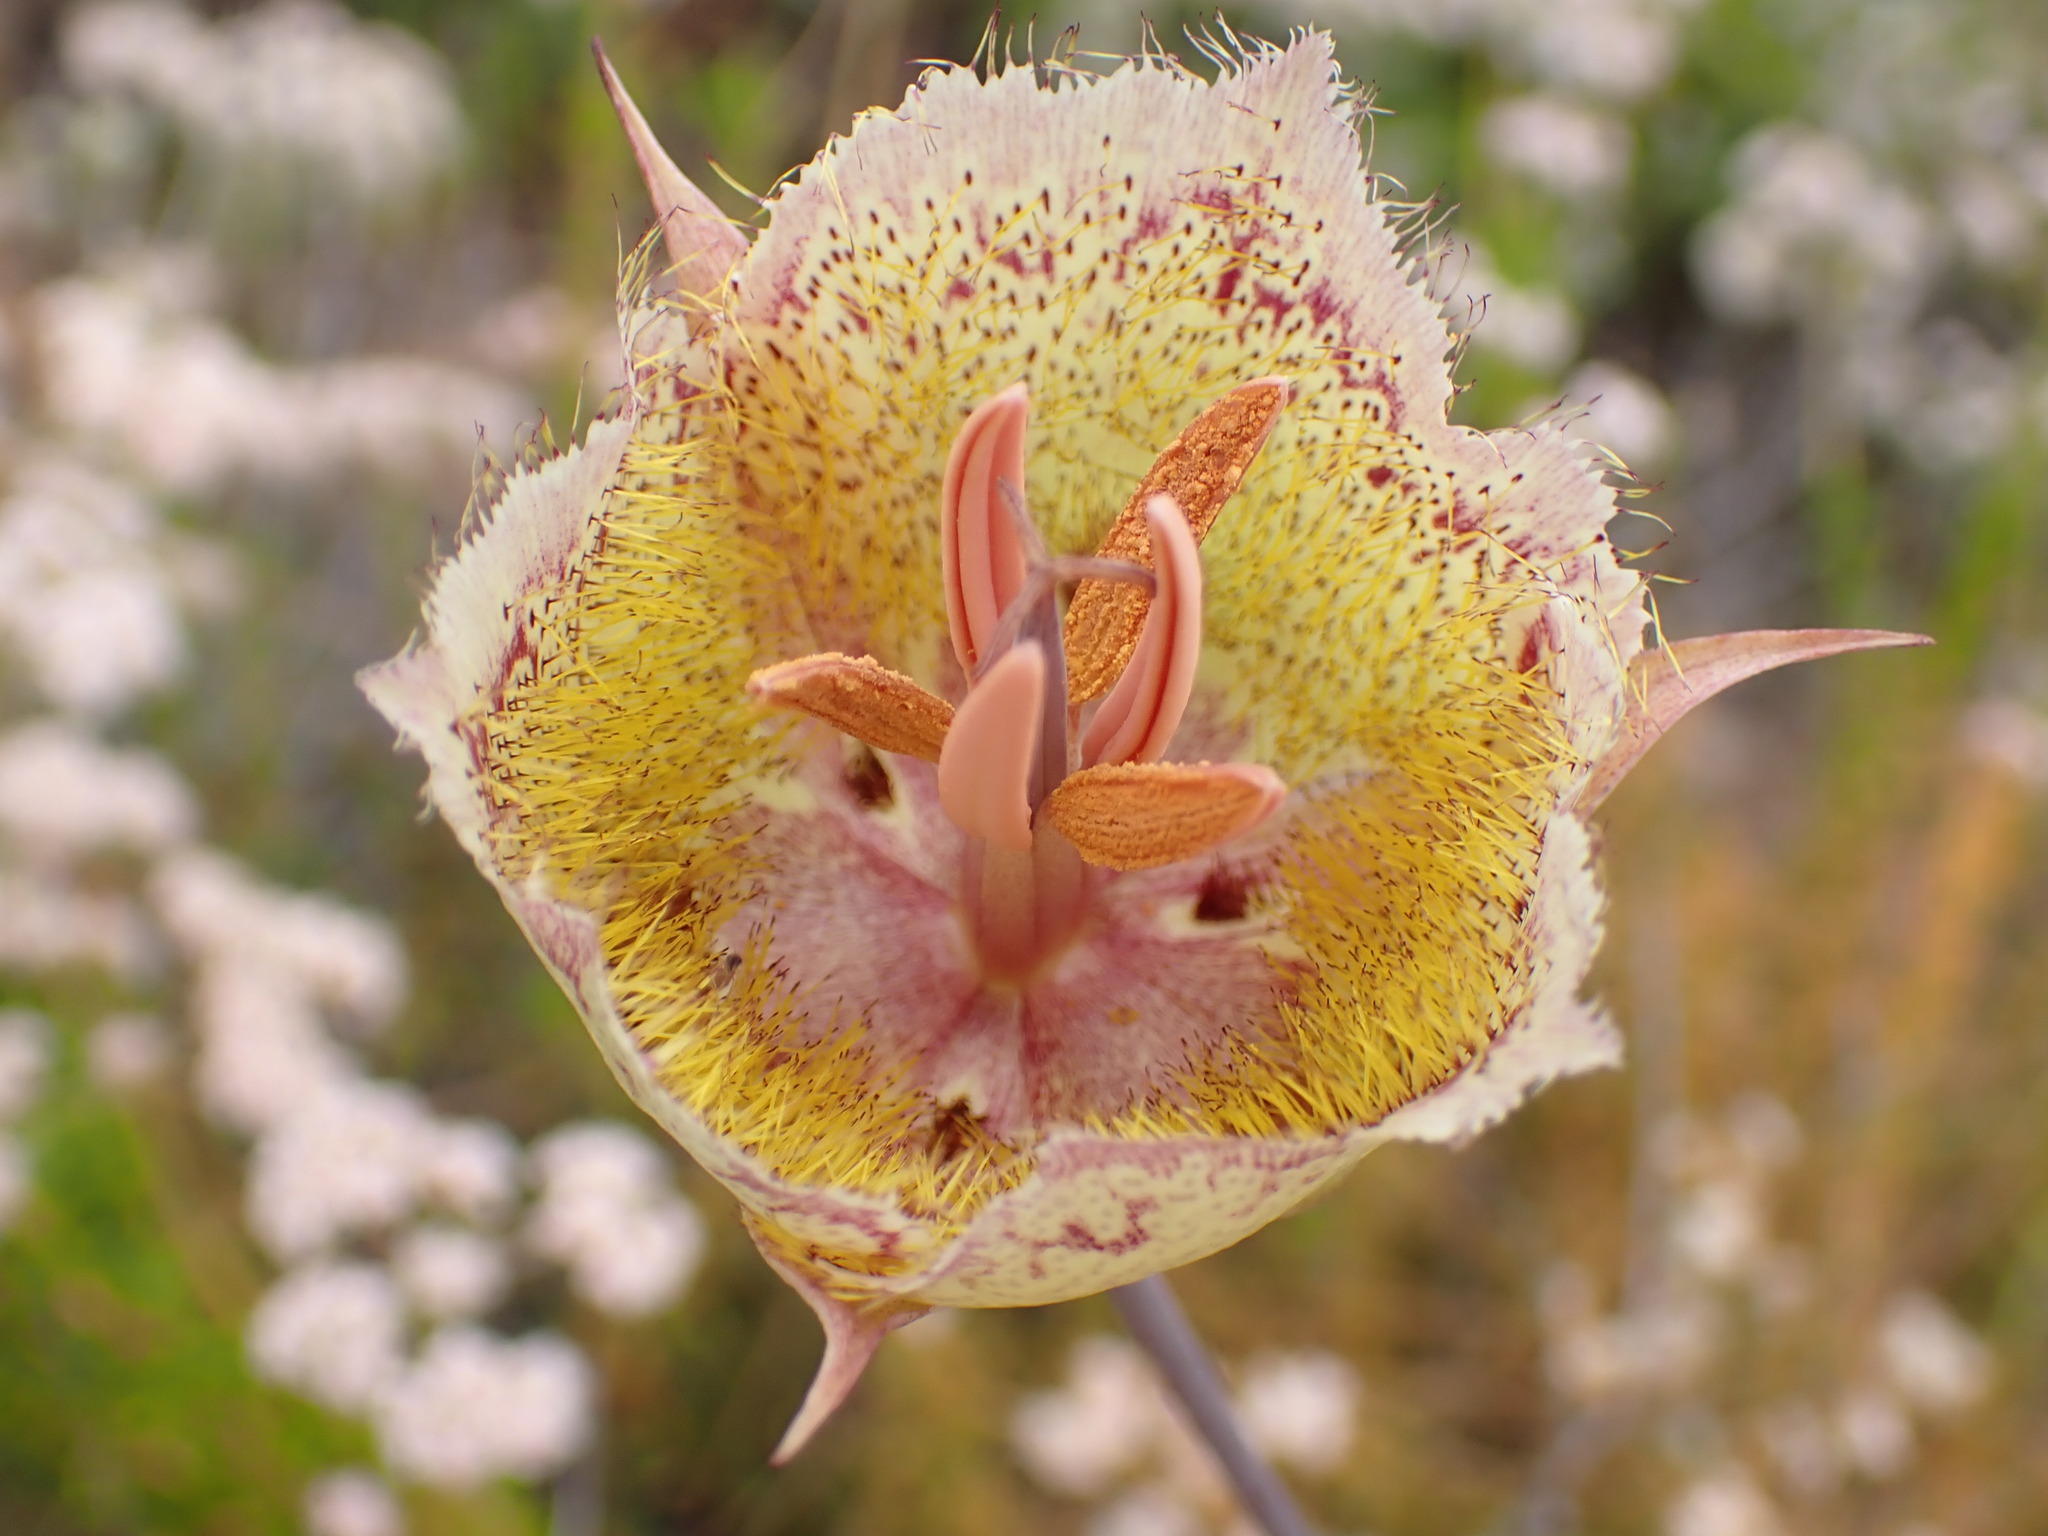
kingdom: Plantae
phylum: Tracheophyta
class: Liliopsida
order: Liliales
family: Liliaceae
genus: Calochortus
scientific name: Calochortus weedii
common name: Weed's mariposa-lily
